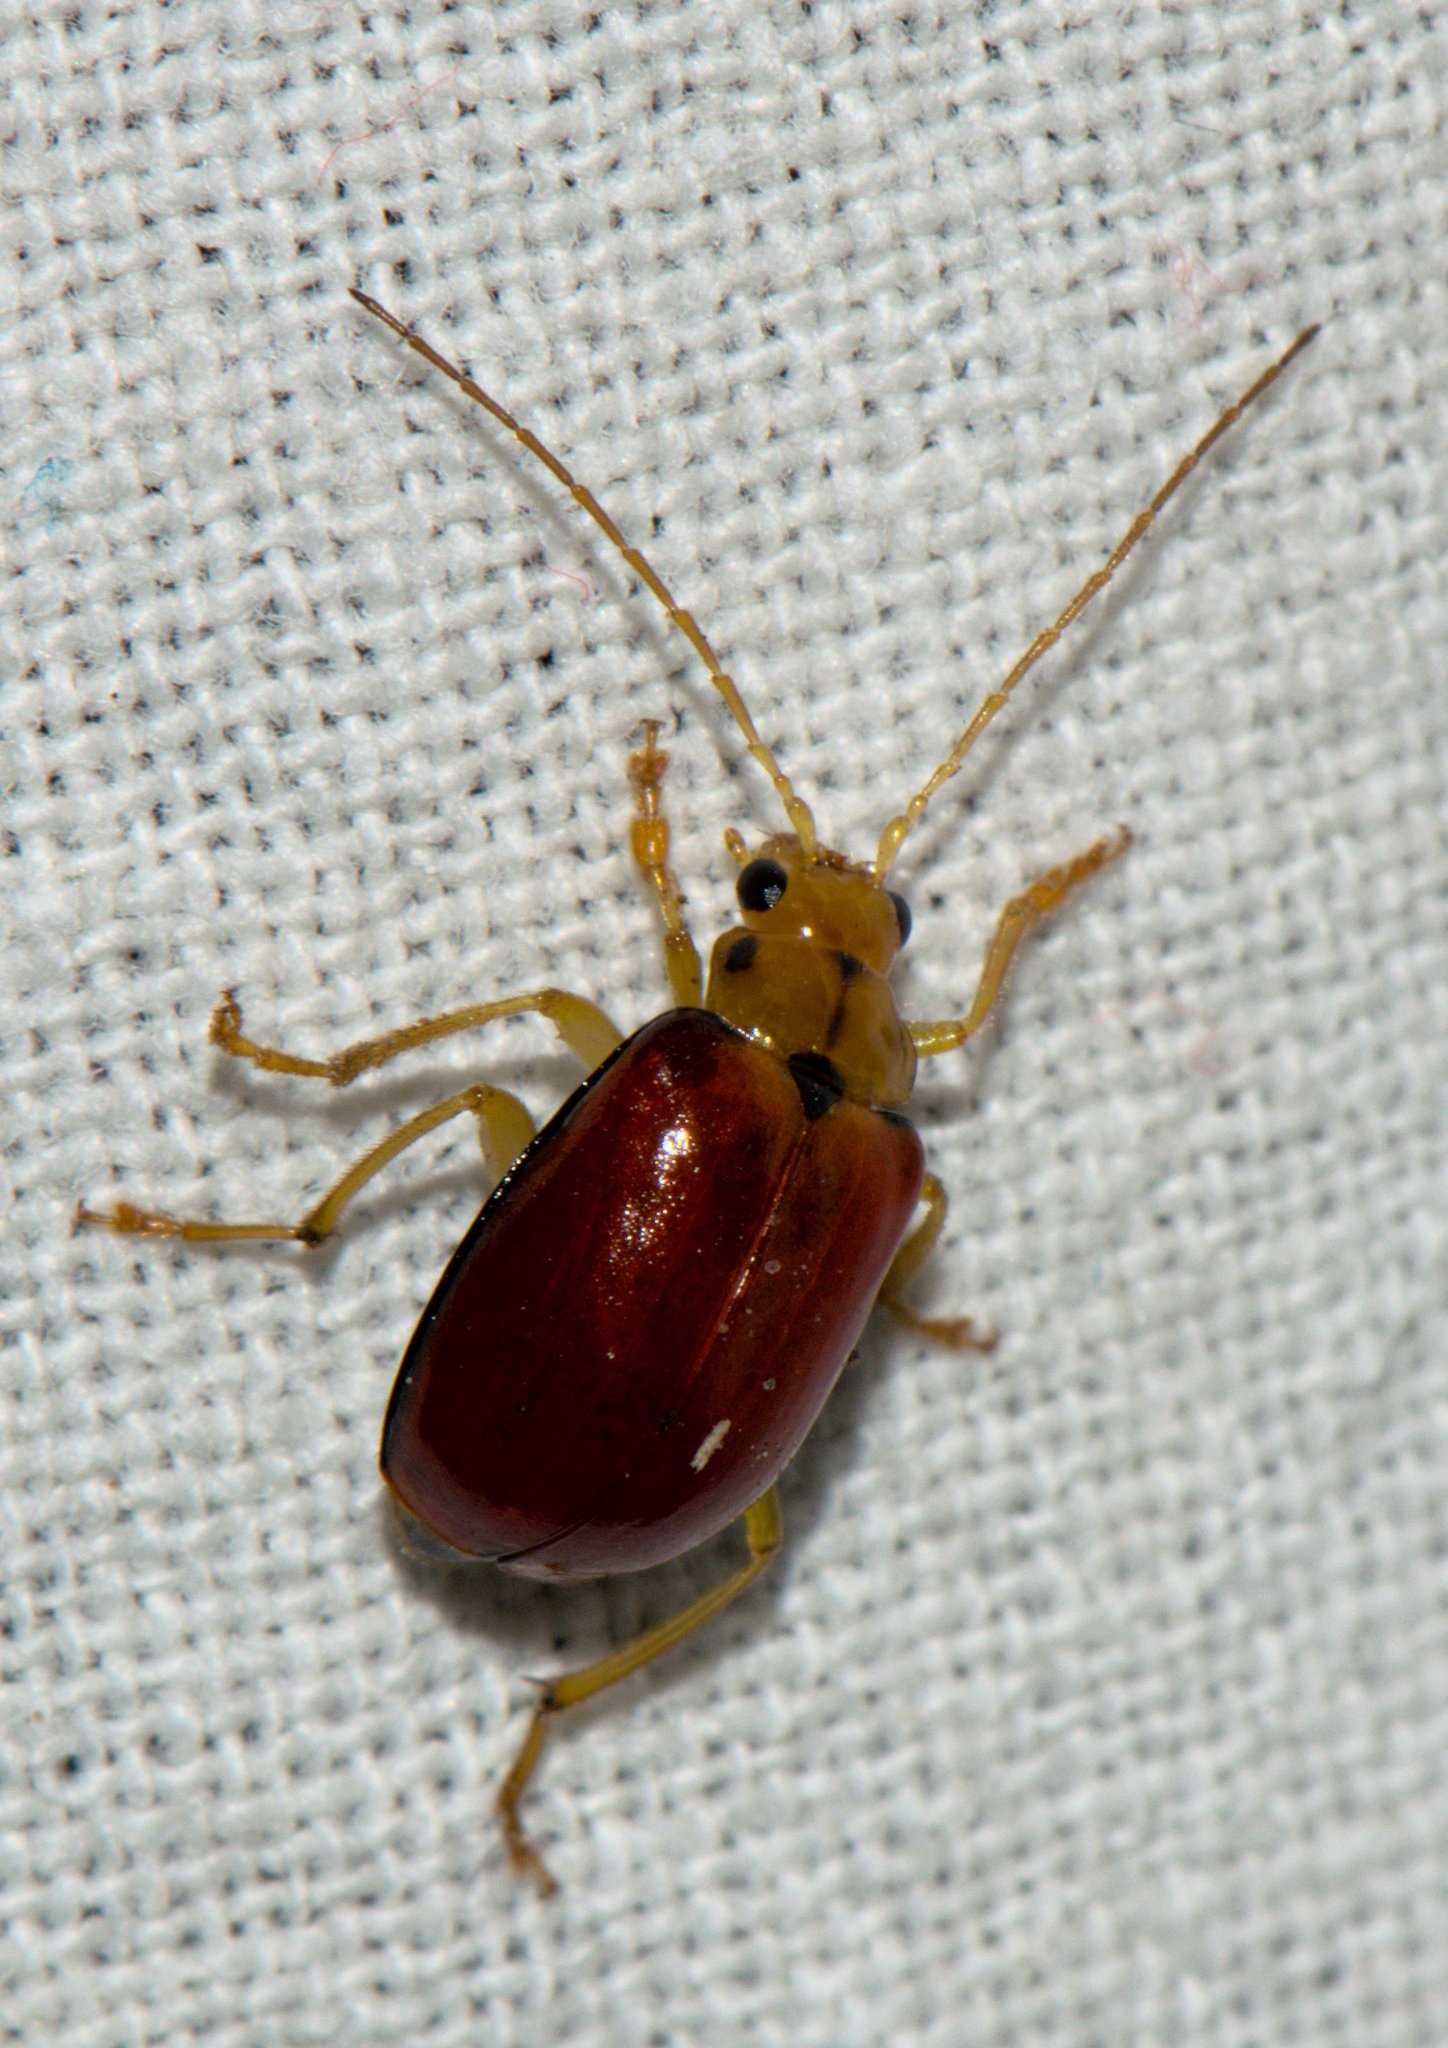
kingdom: Animalia
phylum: Arthropoda
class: Insecta
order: Coleoptera
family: Chrysomelidae
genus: Macrima
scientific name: Macrima
